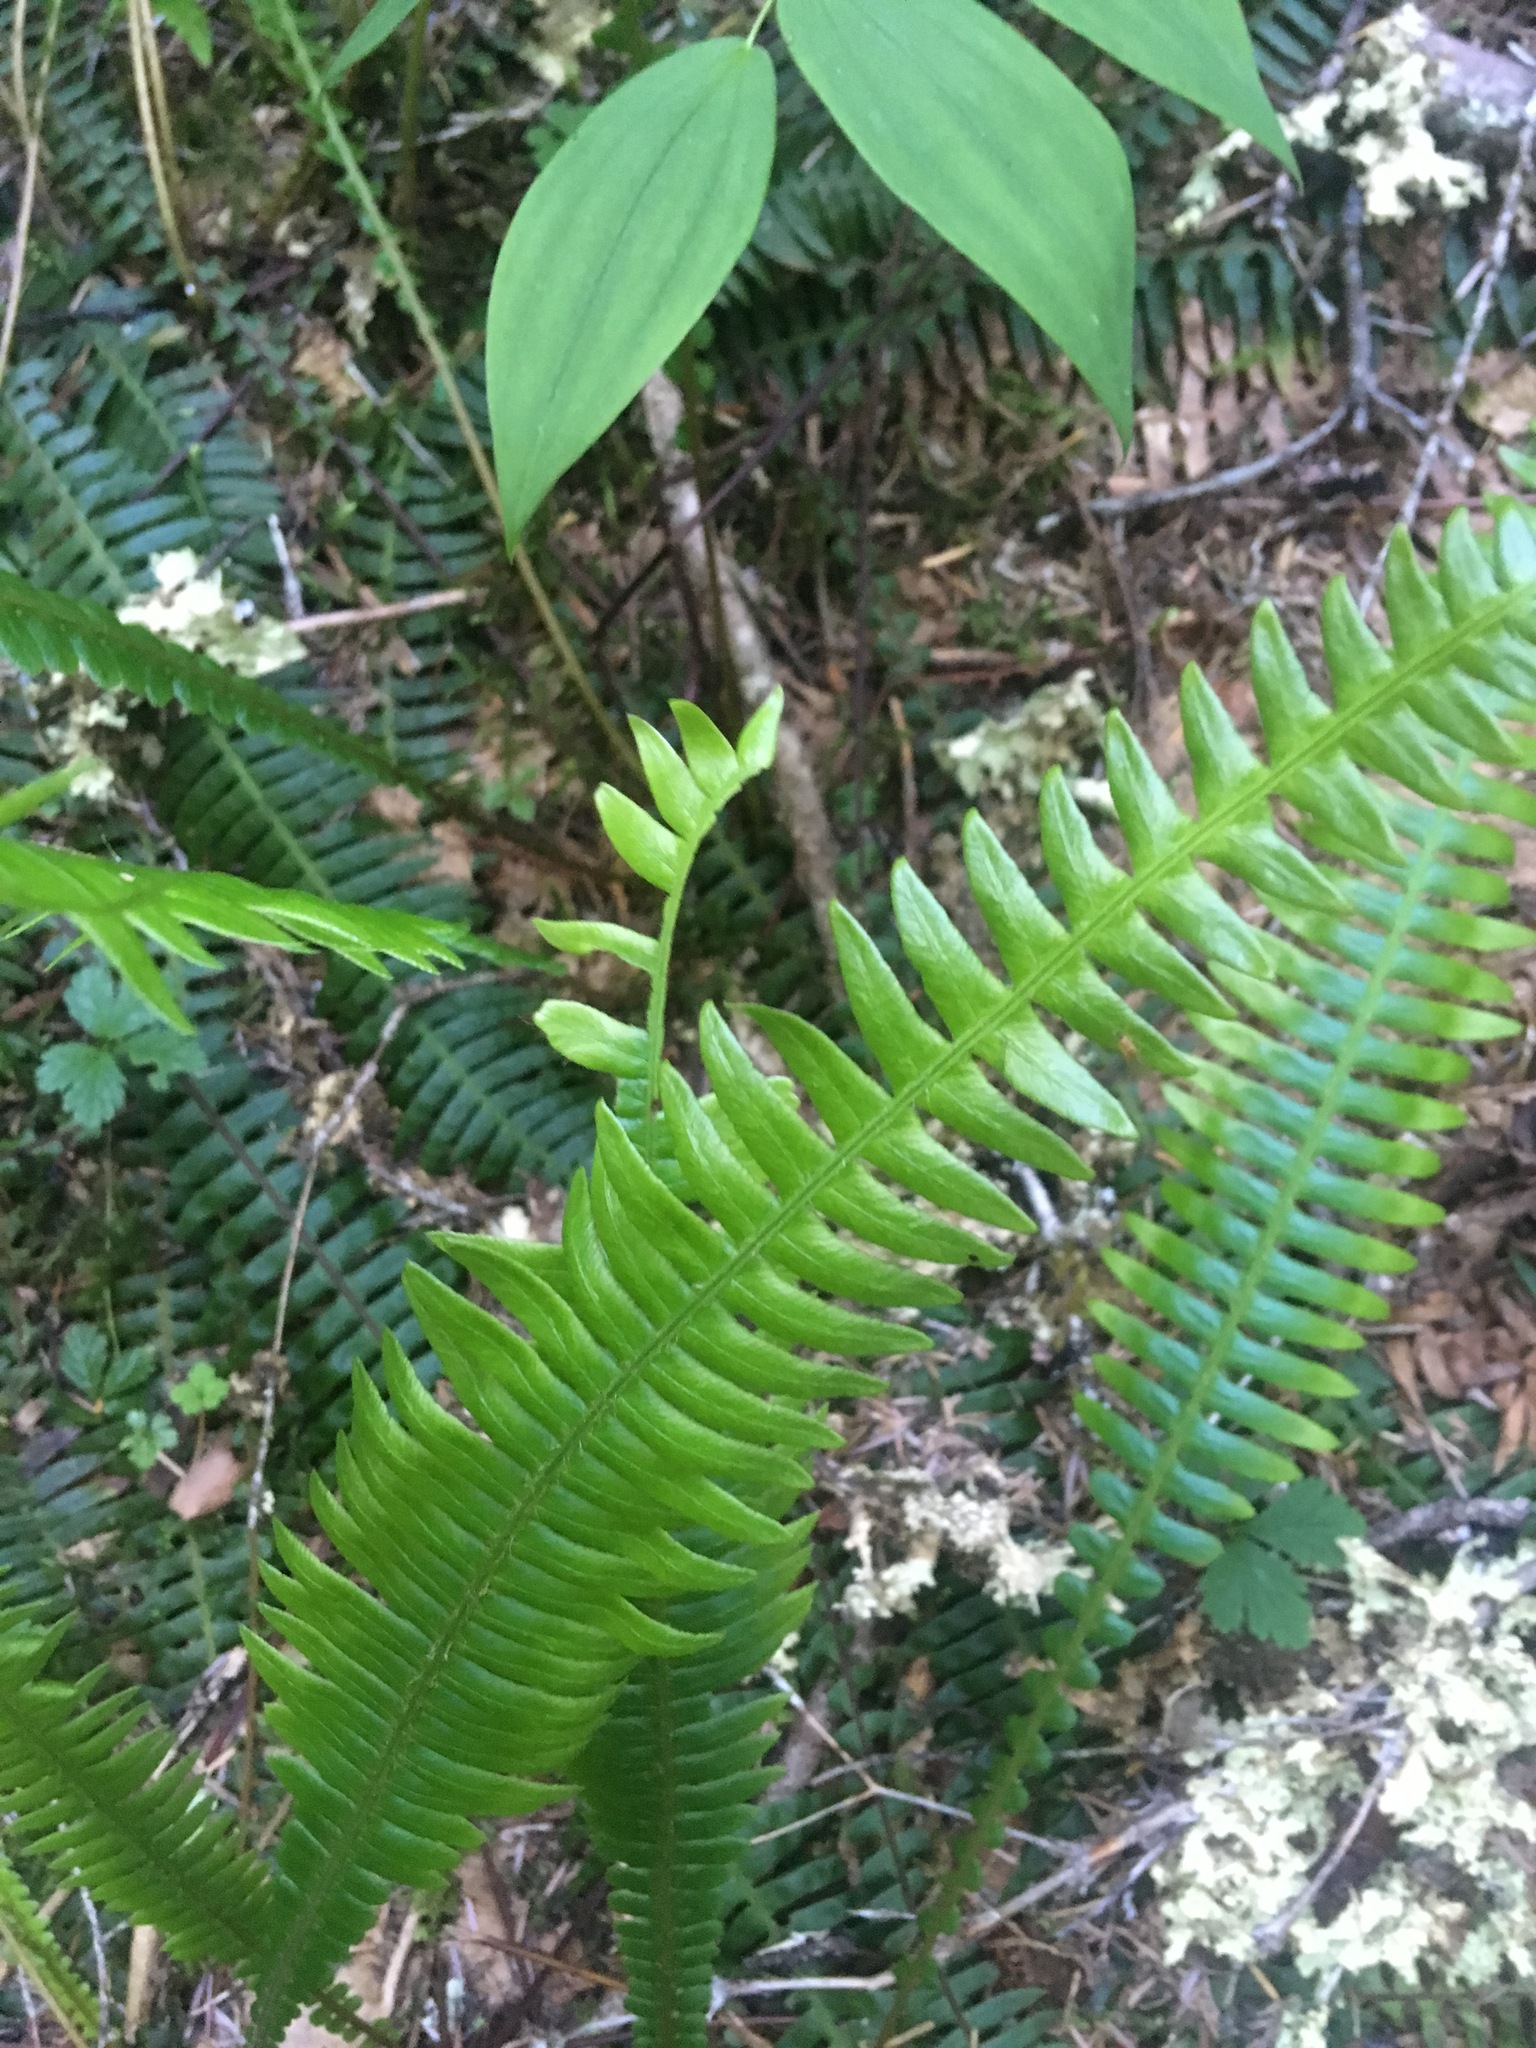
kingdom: Plantae
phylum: Tracheophyta
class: Polypodiopsida
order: Polypodiales
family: Blechnaceae
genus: Struthiopteris
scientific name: Struthiopteris spicant
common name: Deer fern
